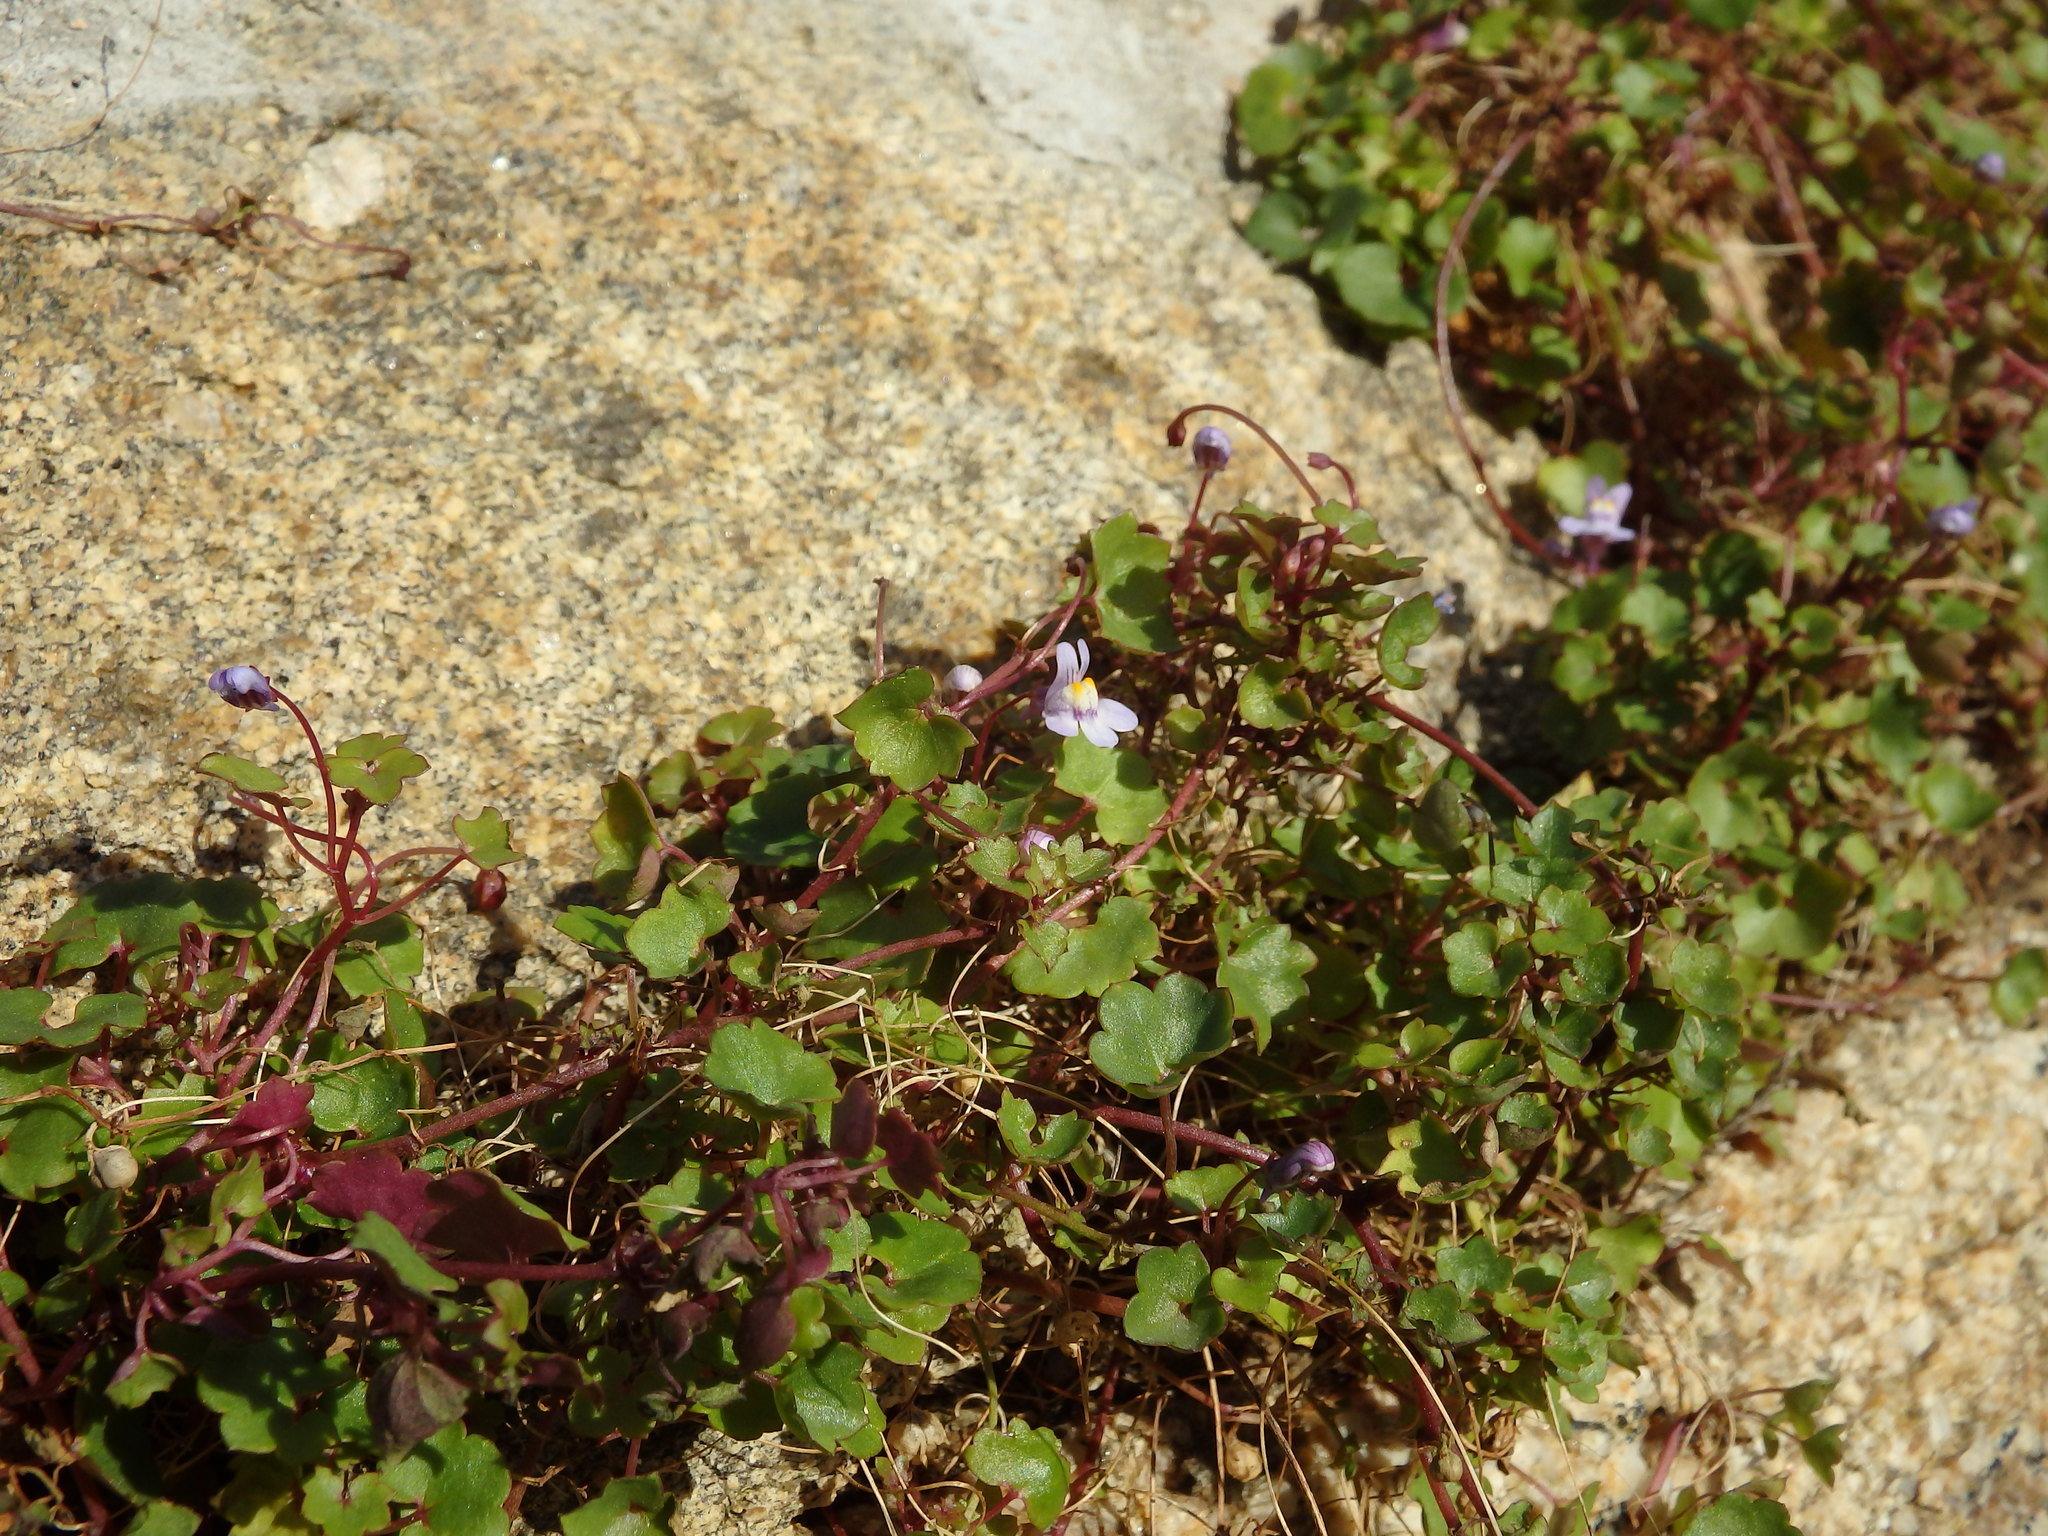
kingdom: Plantae
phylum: Tracheophyta
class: Magnoliopsida
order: Lamiales
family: Plantaginaceae
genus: Cymbalaria
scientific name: Cymbalaria muralis
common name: Ivy-leaved toadflax
